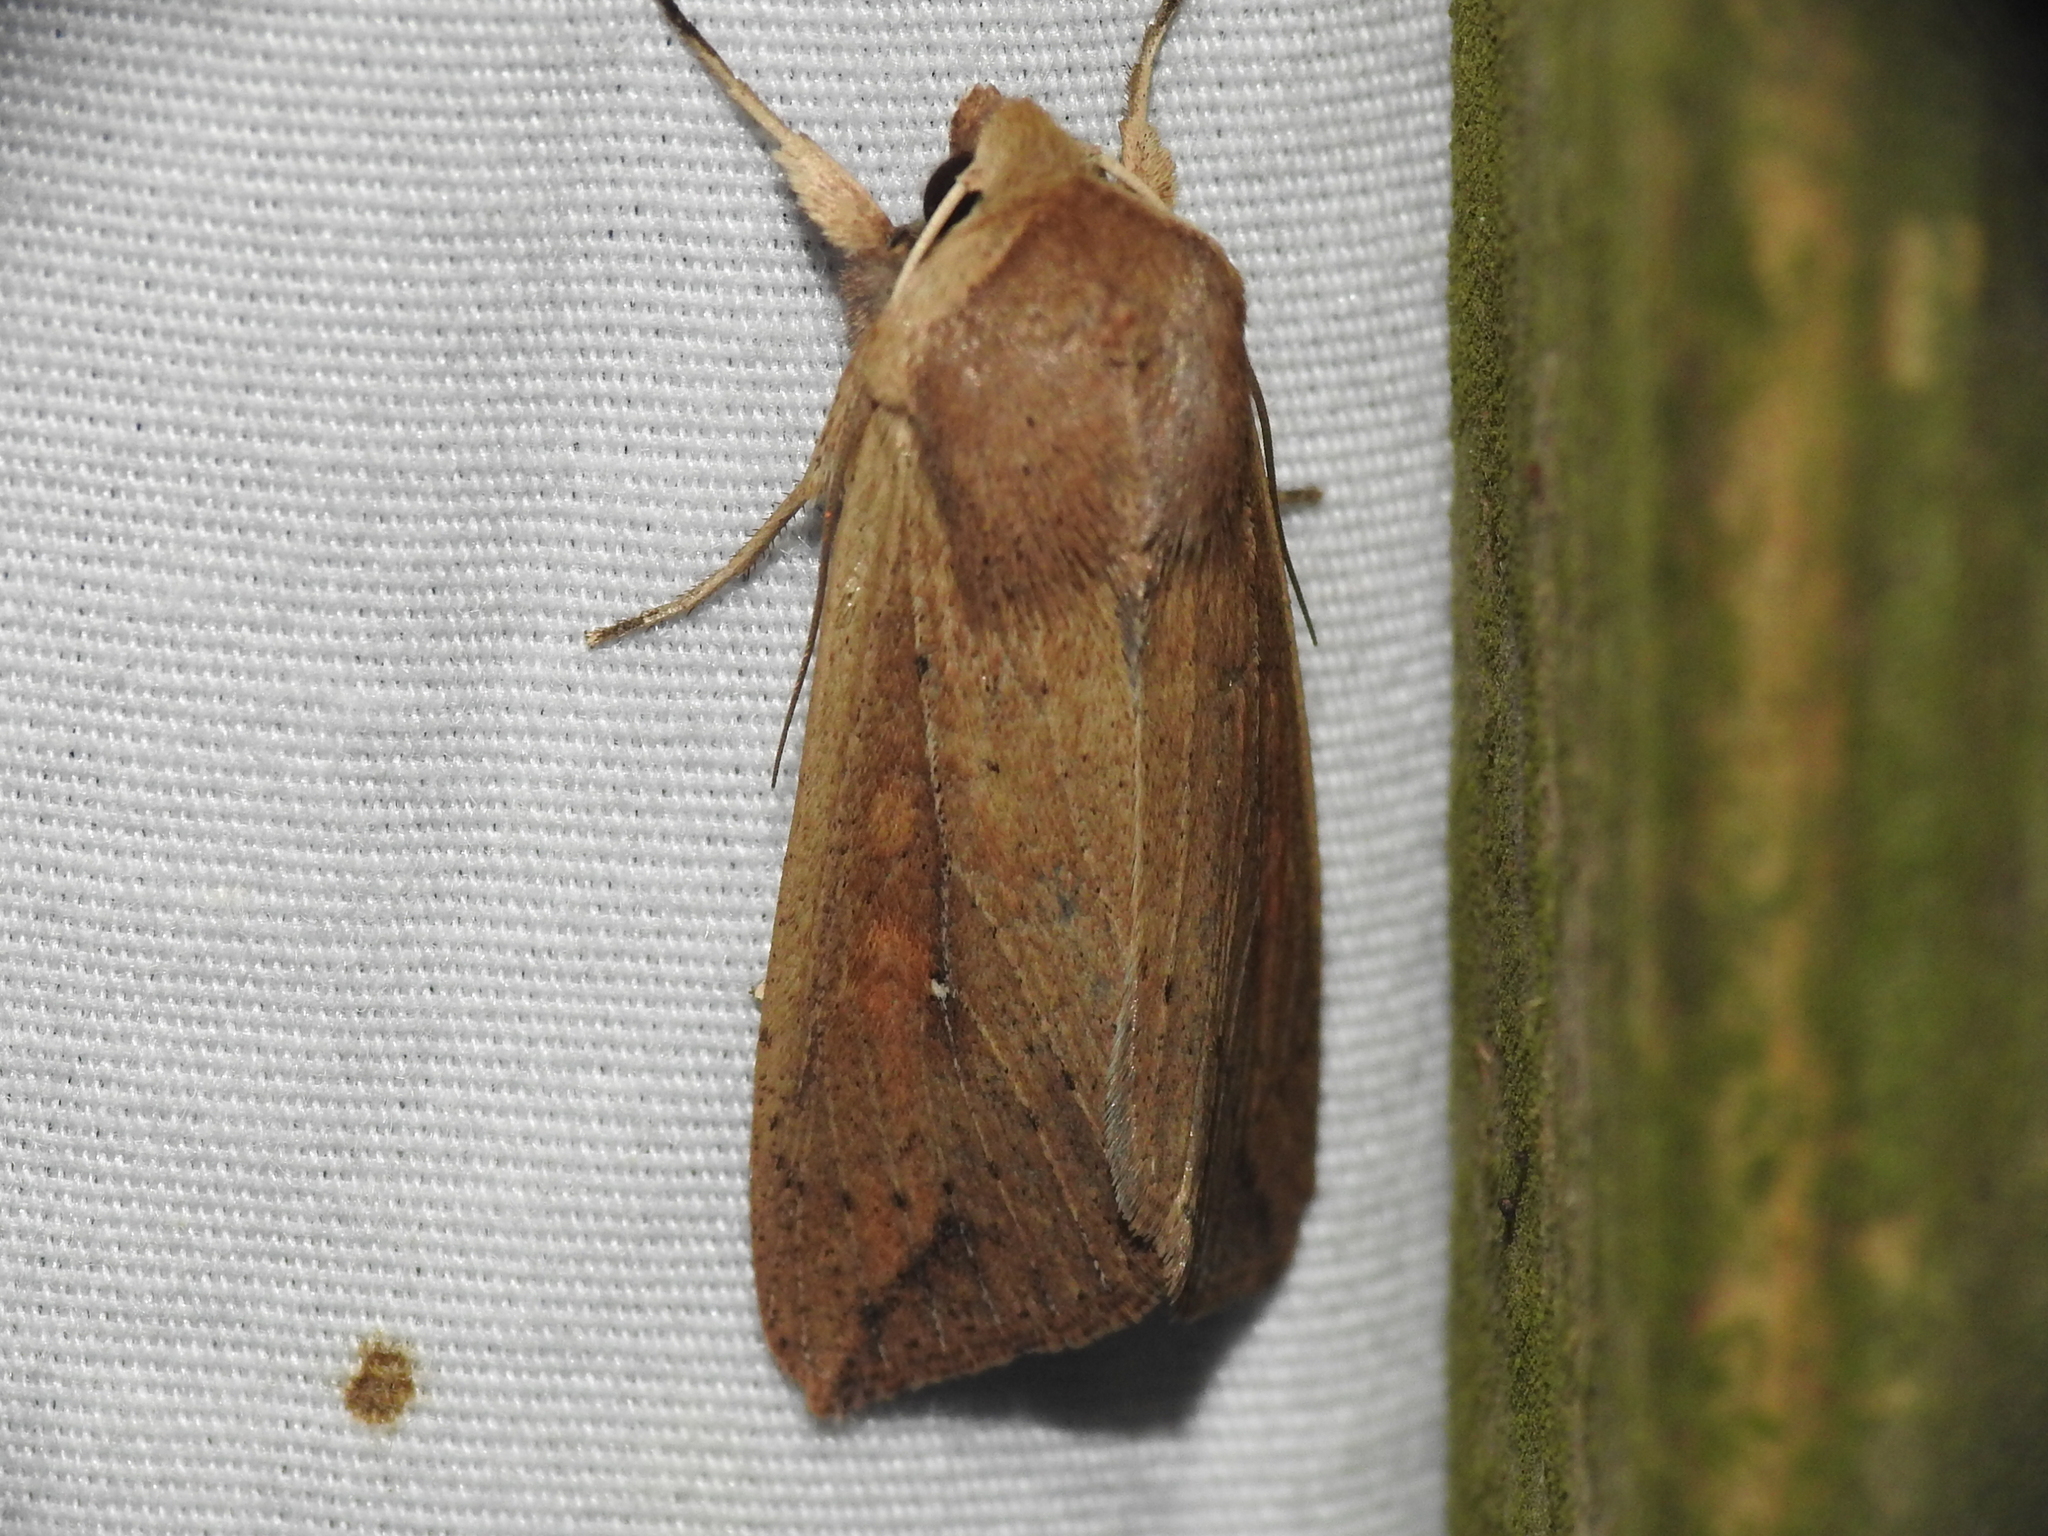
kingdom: Animalia
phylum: Arthropoda
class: Insecta
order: Lepidoptera
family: Noctuidae
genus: Mythimna
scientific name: Mythimna unipuncta
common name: White-speck
